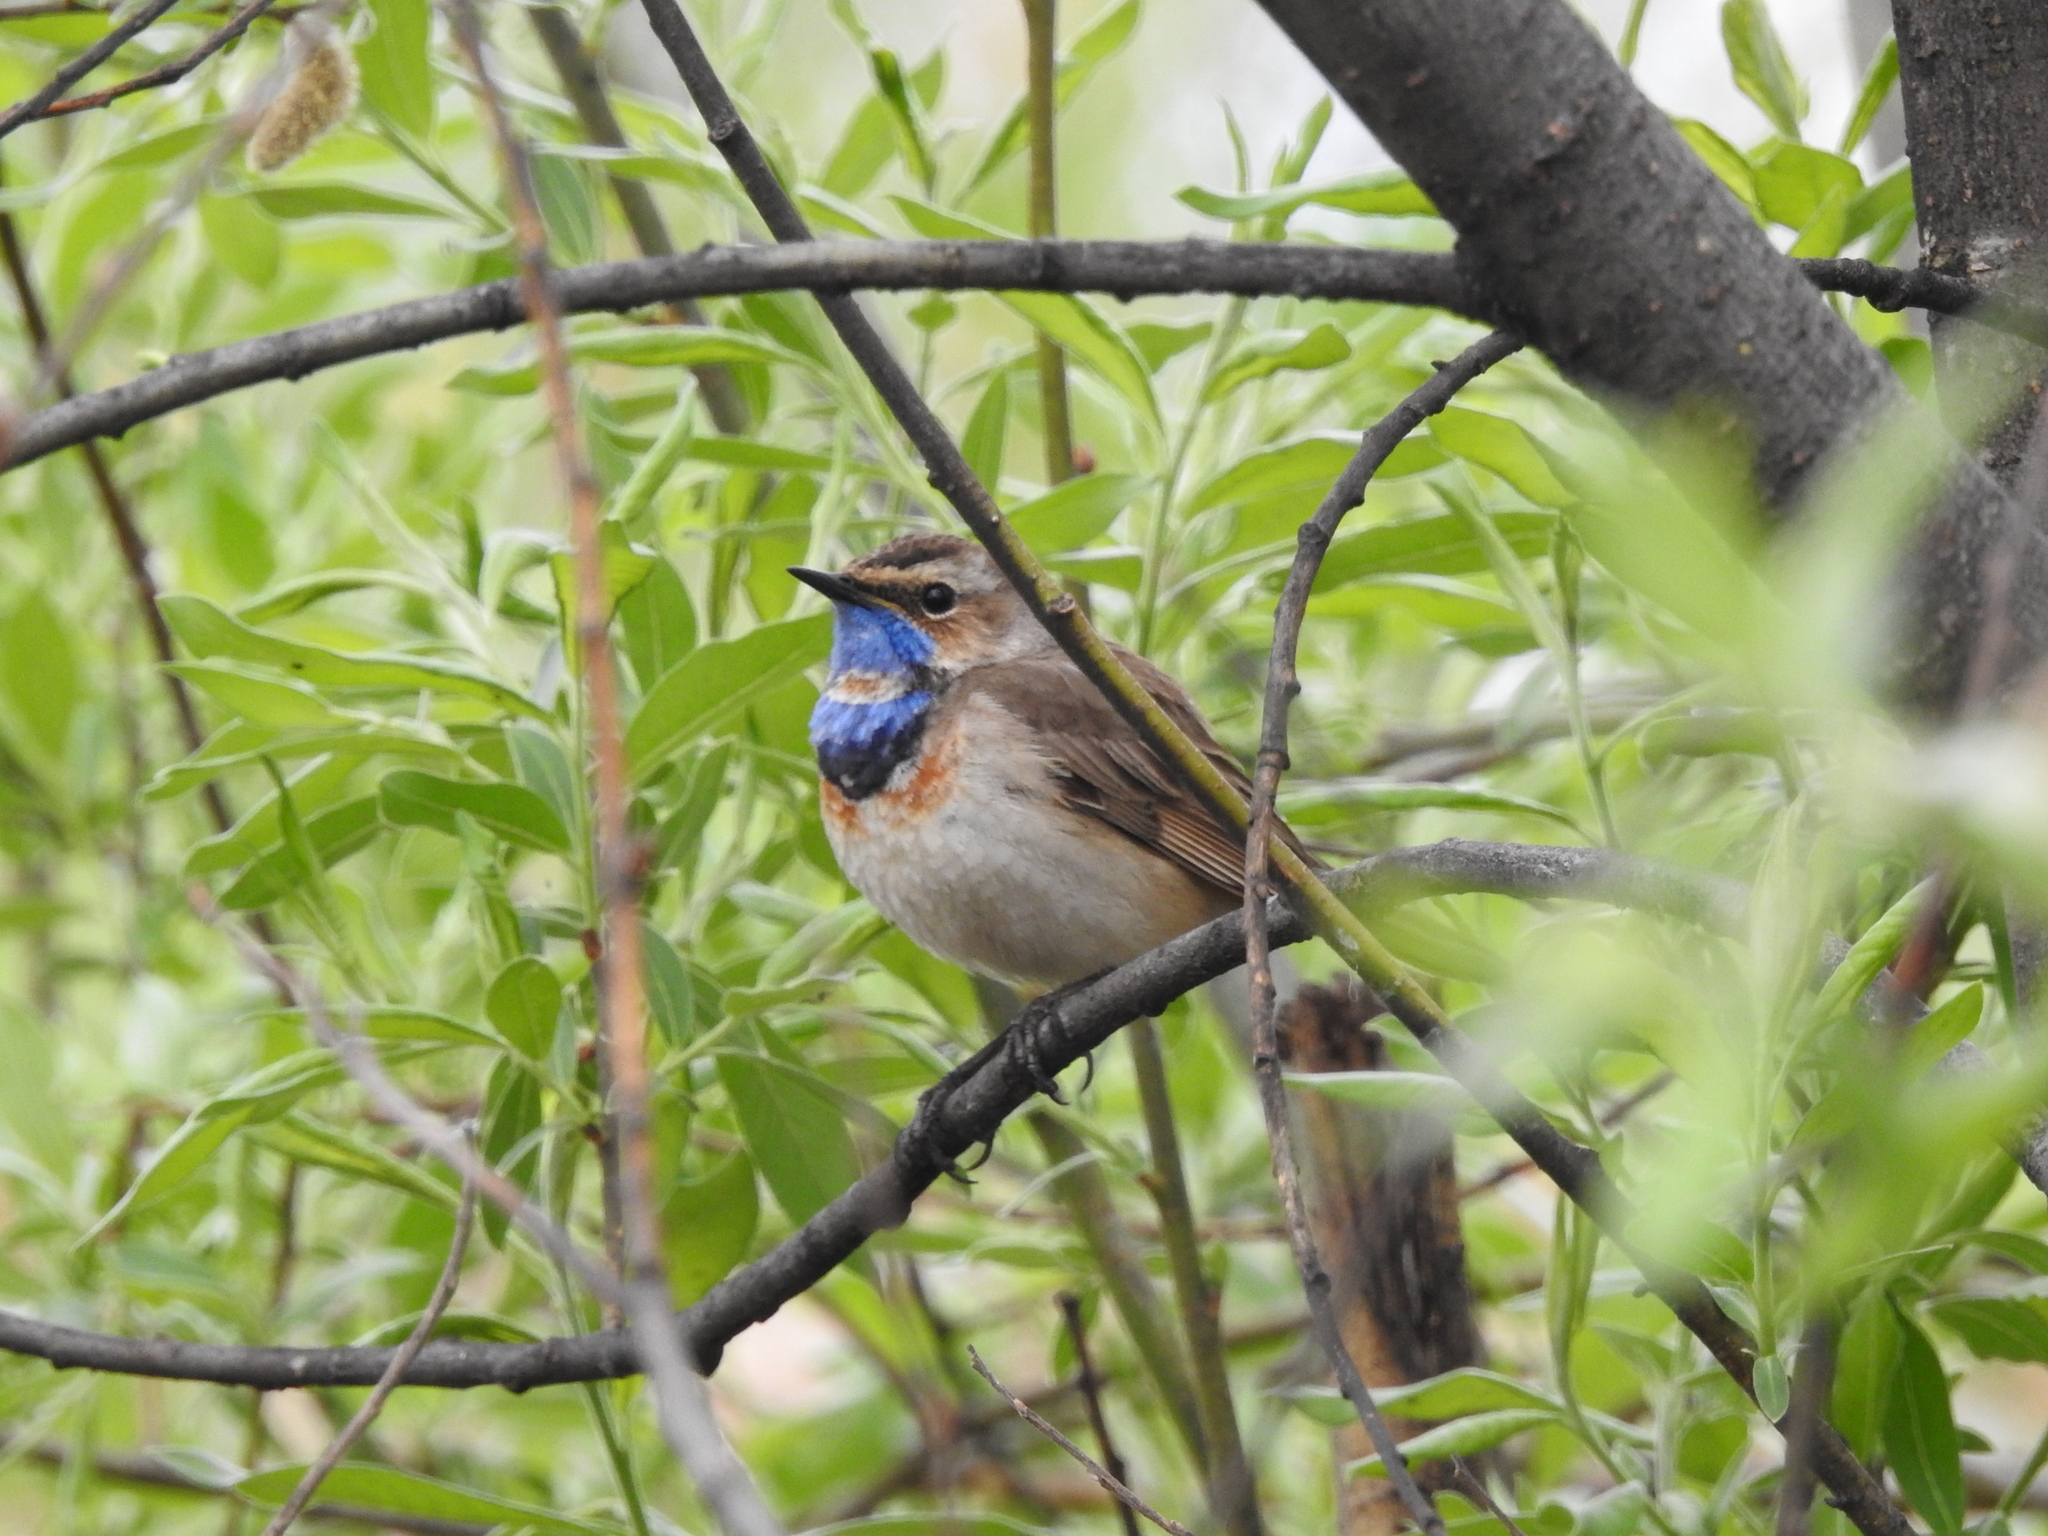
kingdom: Animalia
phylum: Chordata
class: Aves
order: Passeriformes
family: Muscicapidae
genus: Luscinia
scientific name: Luscinia svecica
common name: Bluethroat
